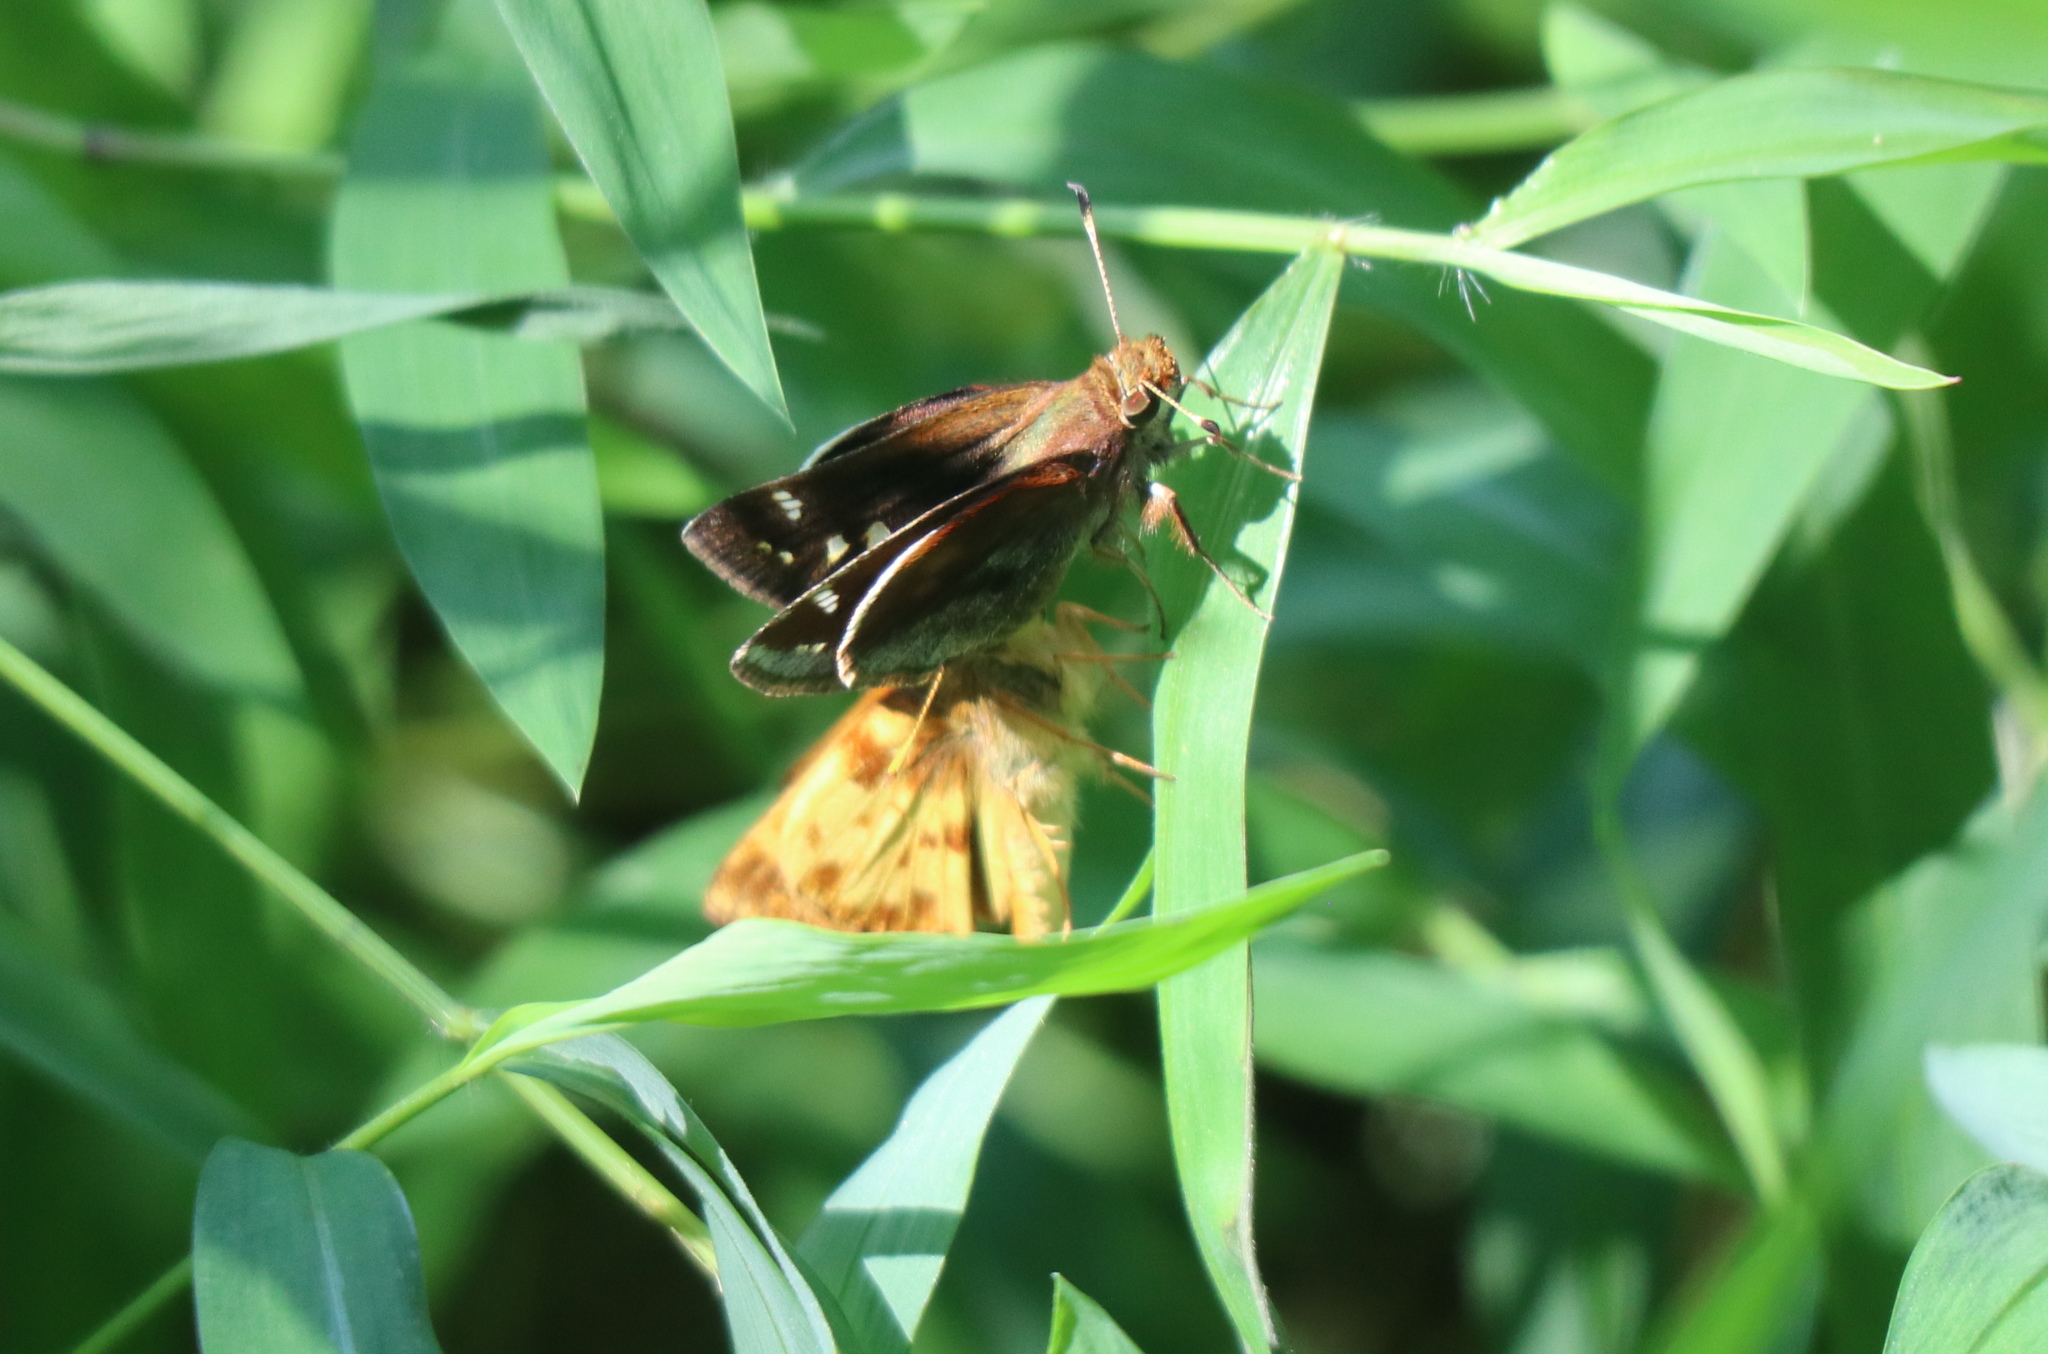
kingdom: Animalia
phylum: Arthropoda
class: Insecta
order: Lepidoptera
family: Hesperiidae
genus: Lon
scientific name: Lon zabulon
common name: Zabulon skipper
